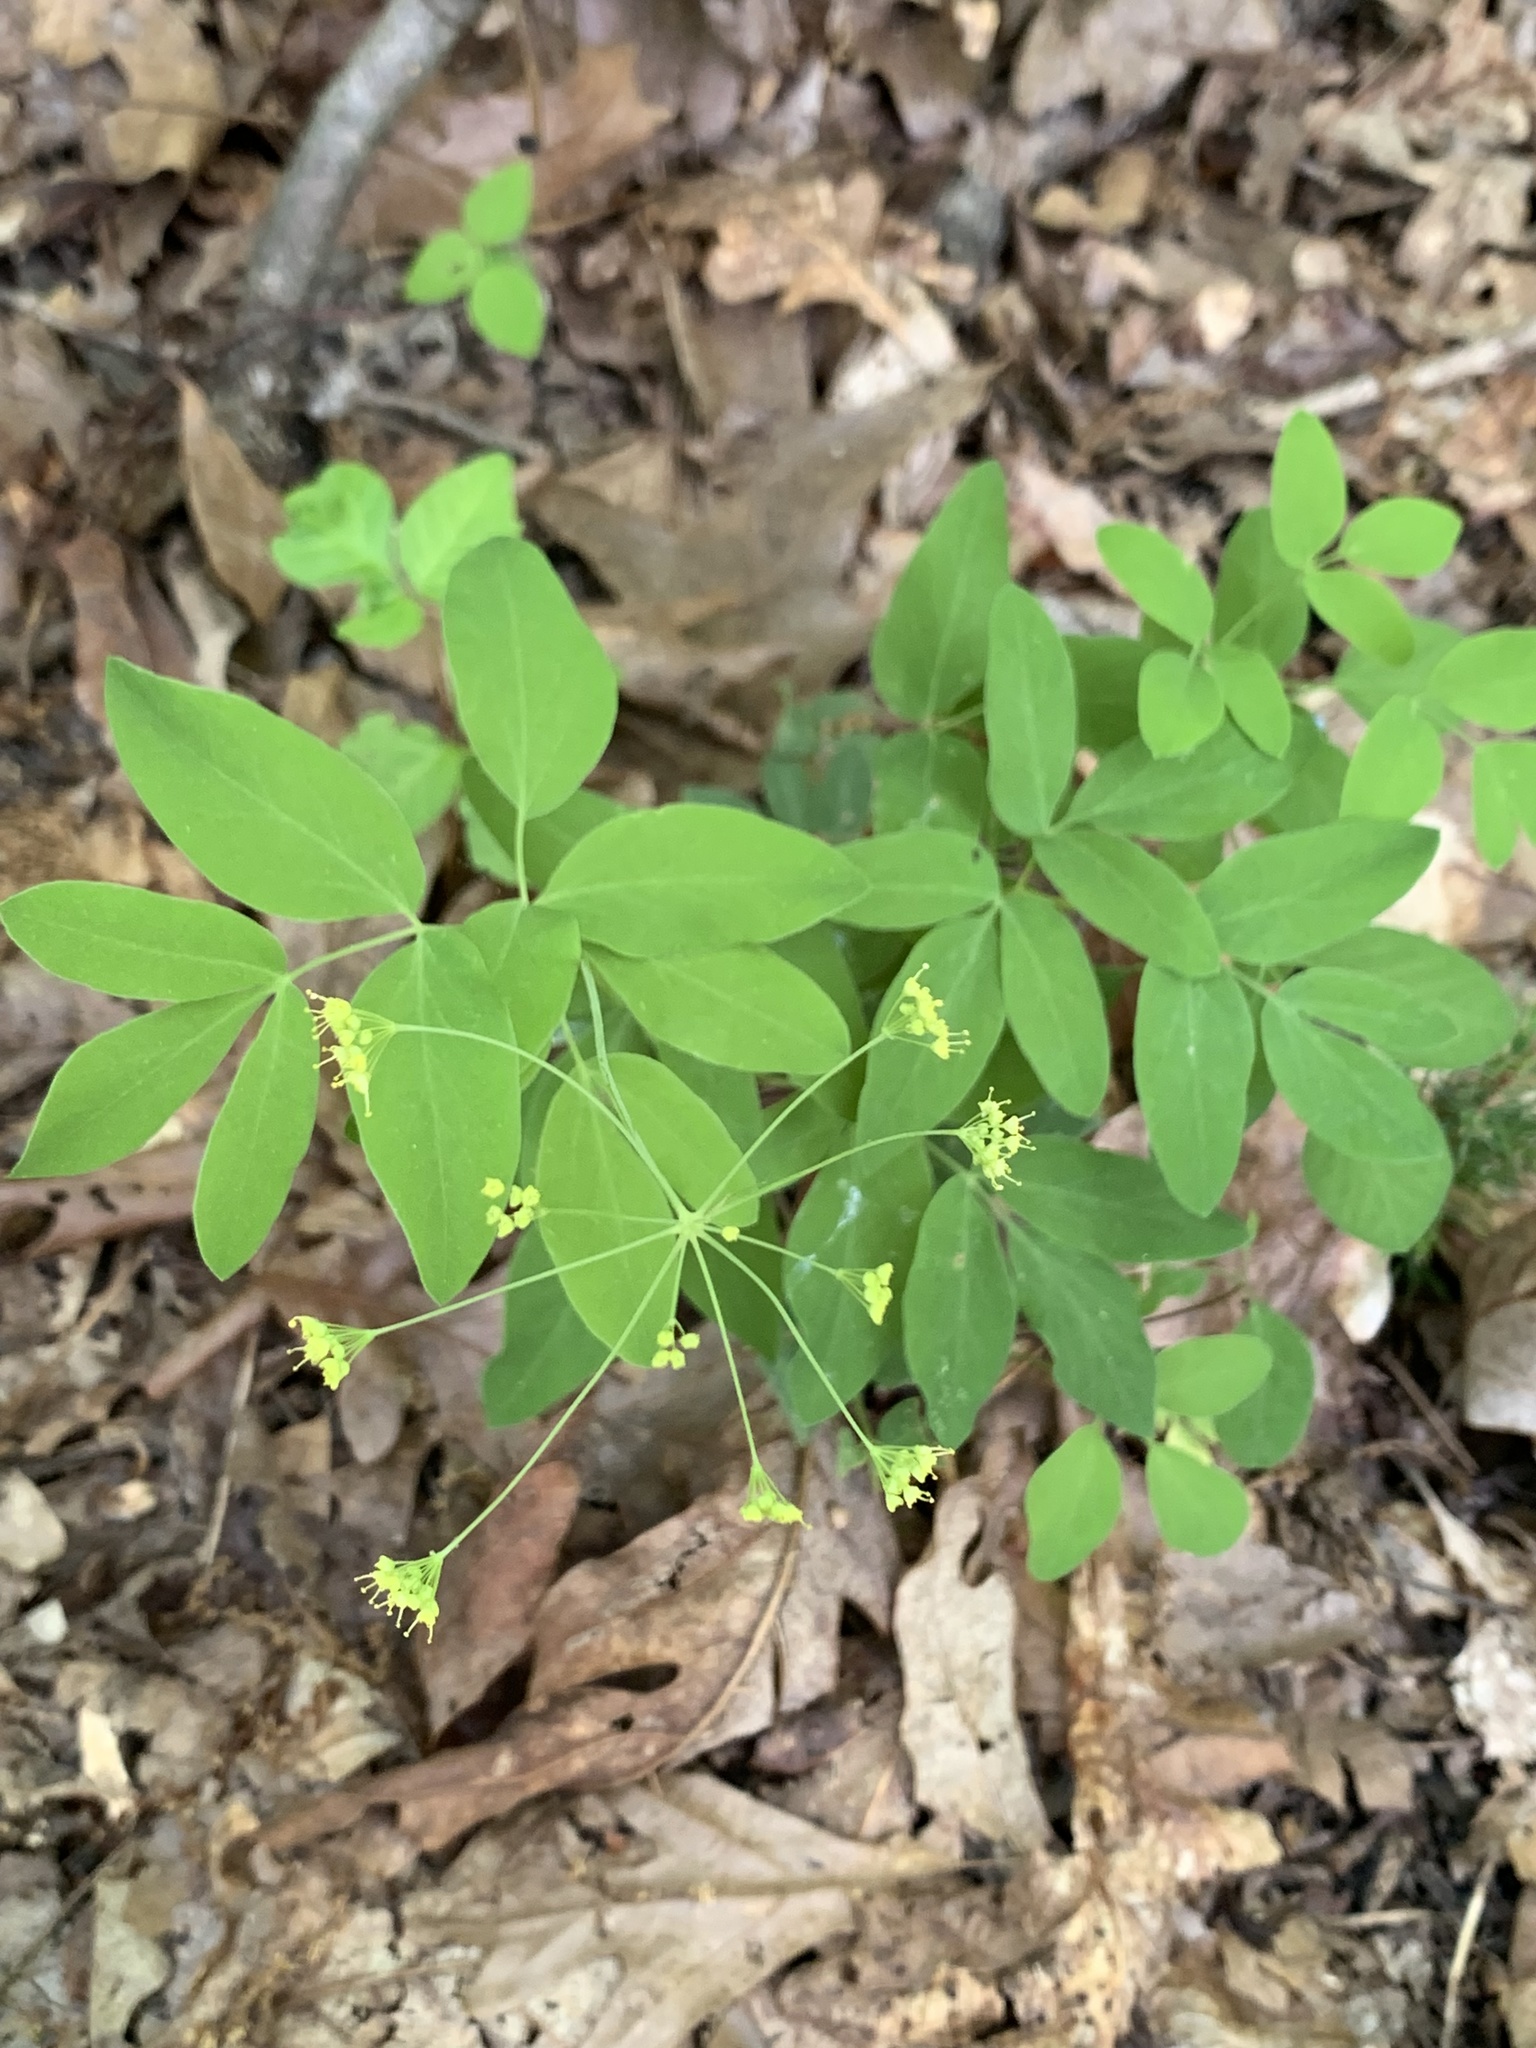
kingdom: Plantae
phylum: Tracheophyta
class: Magnoliopsida
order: Apiales
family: Apiaceae
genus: Taenidia
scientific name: Taenidia integerrima
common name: Golden alexander
